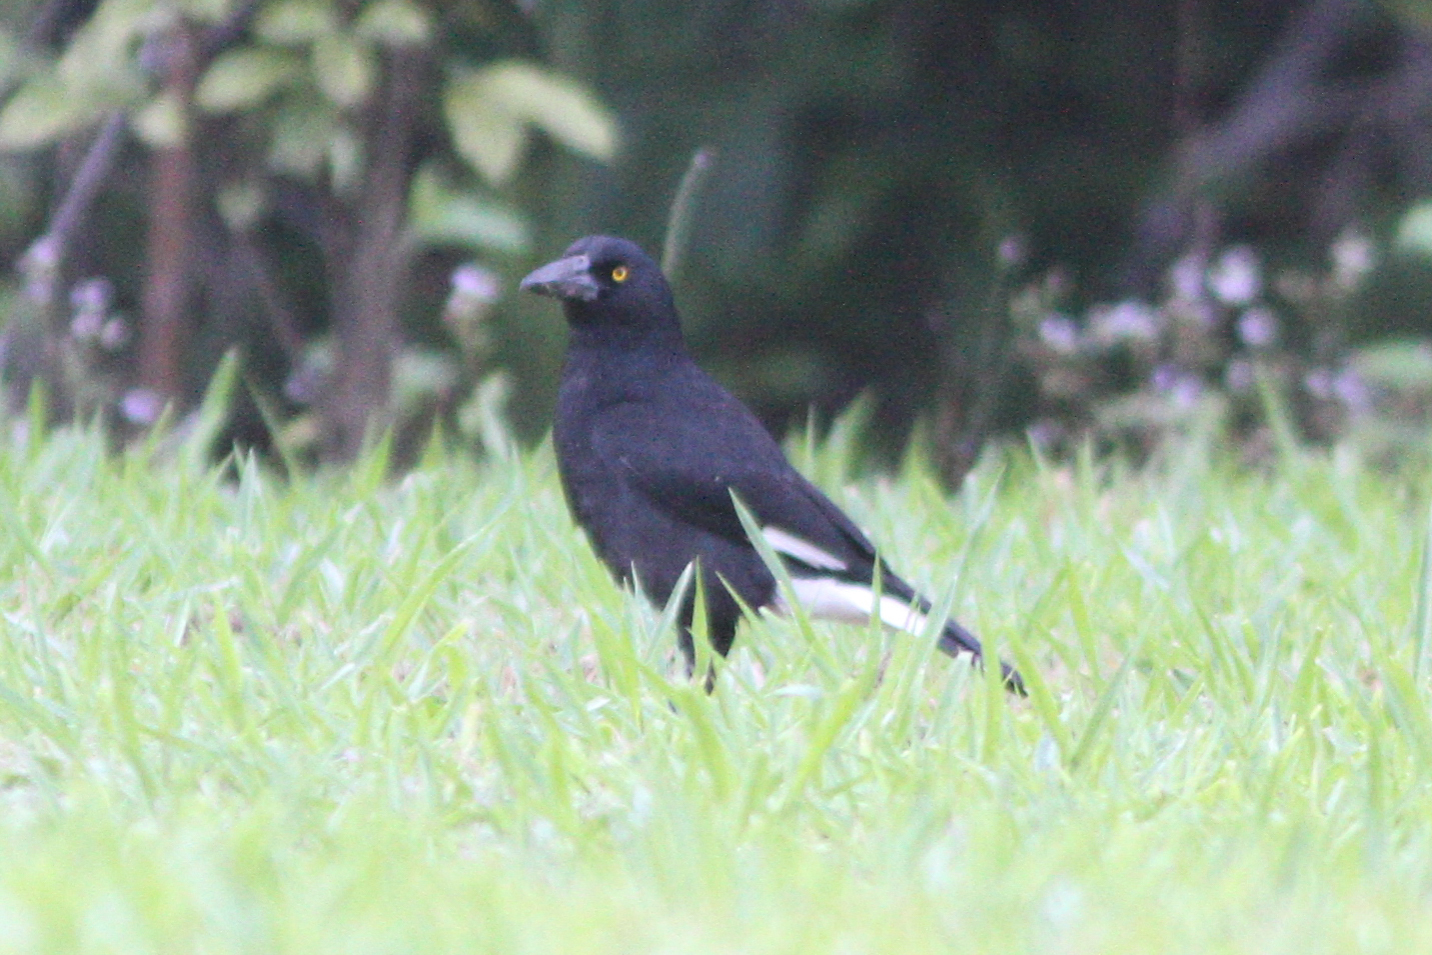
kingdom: Animalia
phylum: Chordata
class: Aves
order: Passeriformes
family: Cracticidae
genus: Strepera
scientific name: Strepera graculina
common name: Pied currawong
